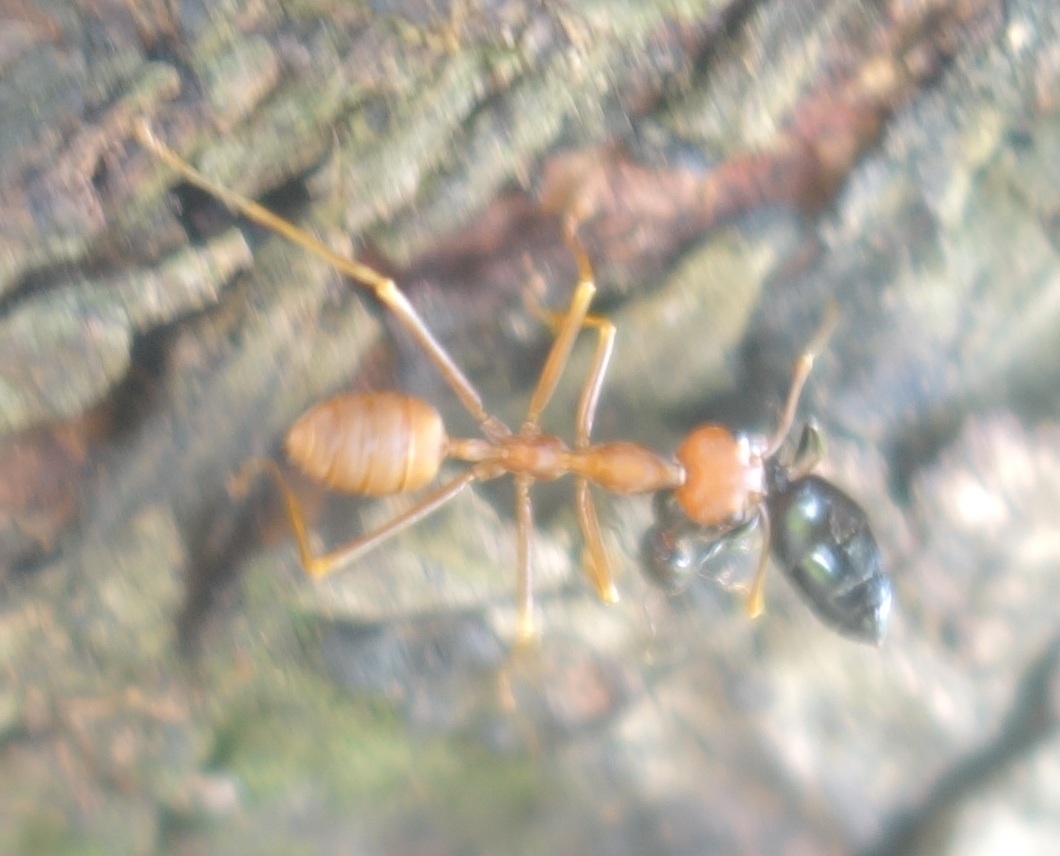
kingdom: Animalia
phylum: Arthropoda
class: Insecta
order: Hymenoptera
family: Formicidae
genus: Oecophylla
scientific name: Oecophylla smaragdina
